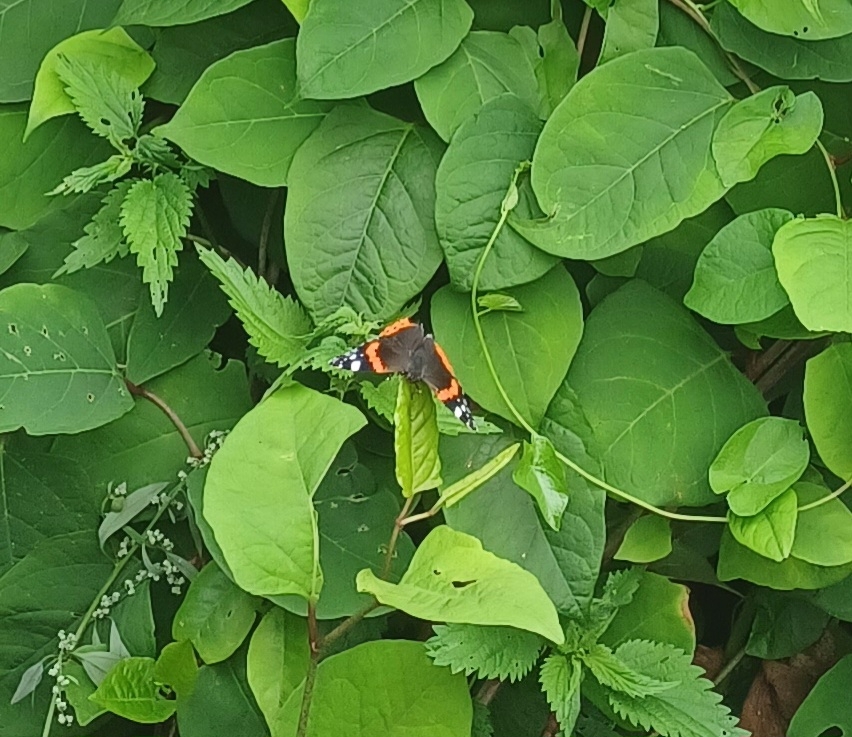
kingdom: Animalia
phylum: Arthropoda
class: Insecta
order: Lepidoptera
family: Nymphalidae
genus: Vanessa
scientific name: Vanessa atalanta
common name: Red admiral
